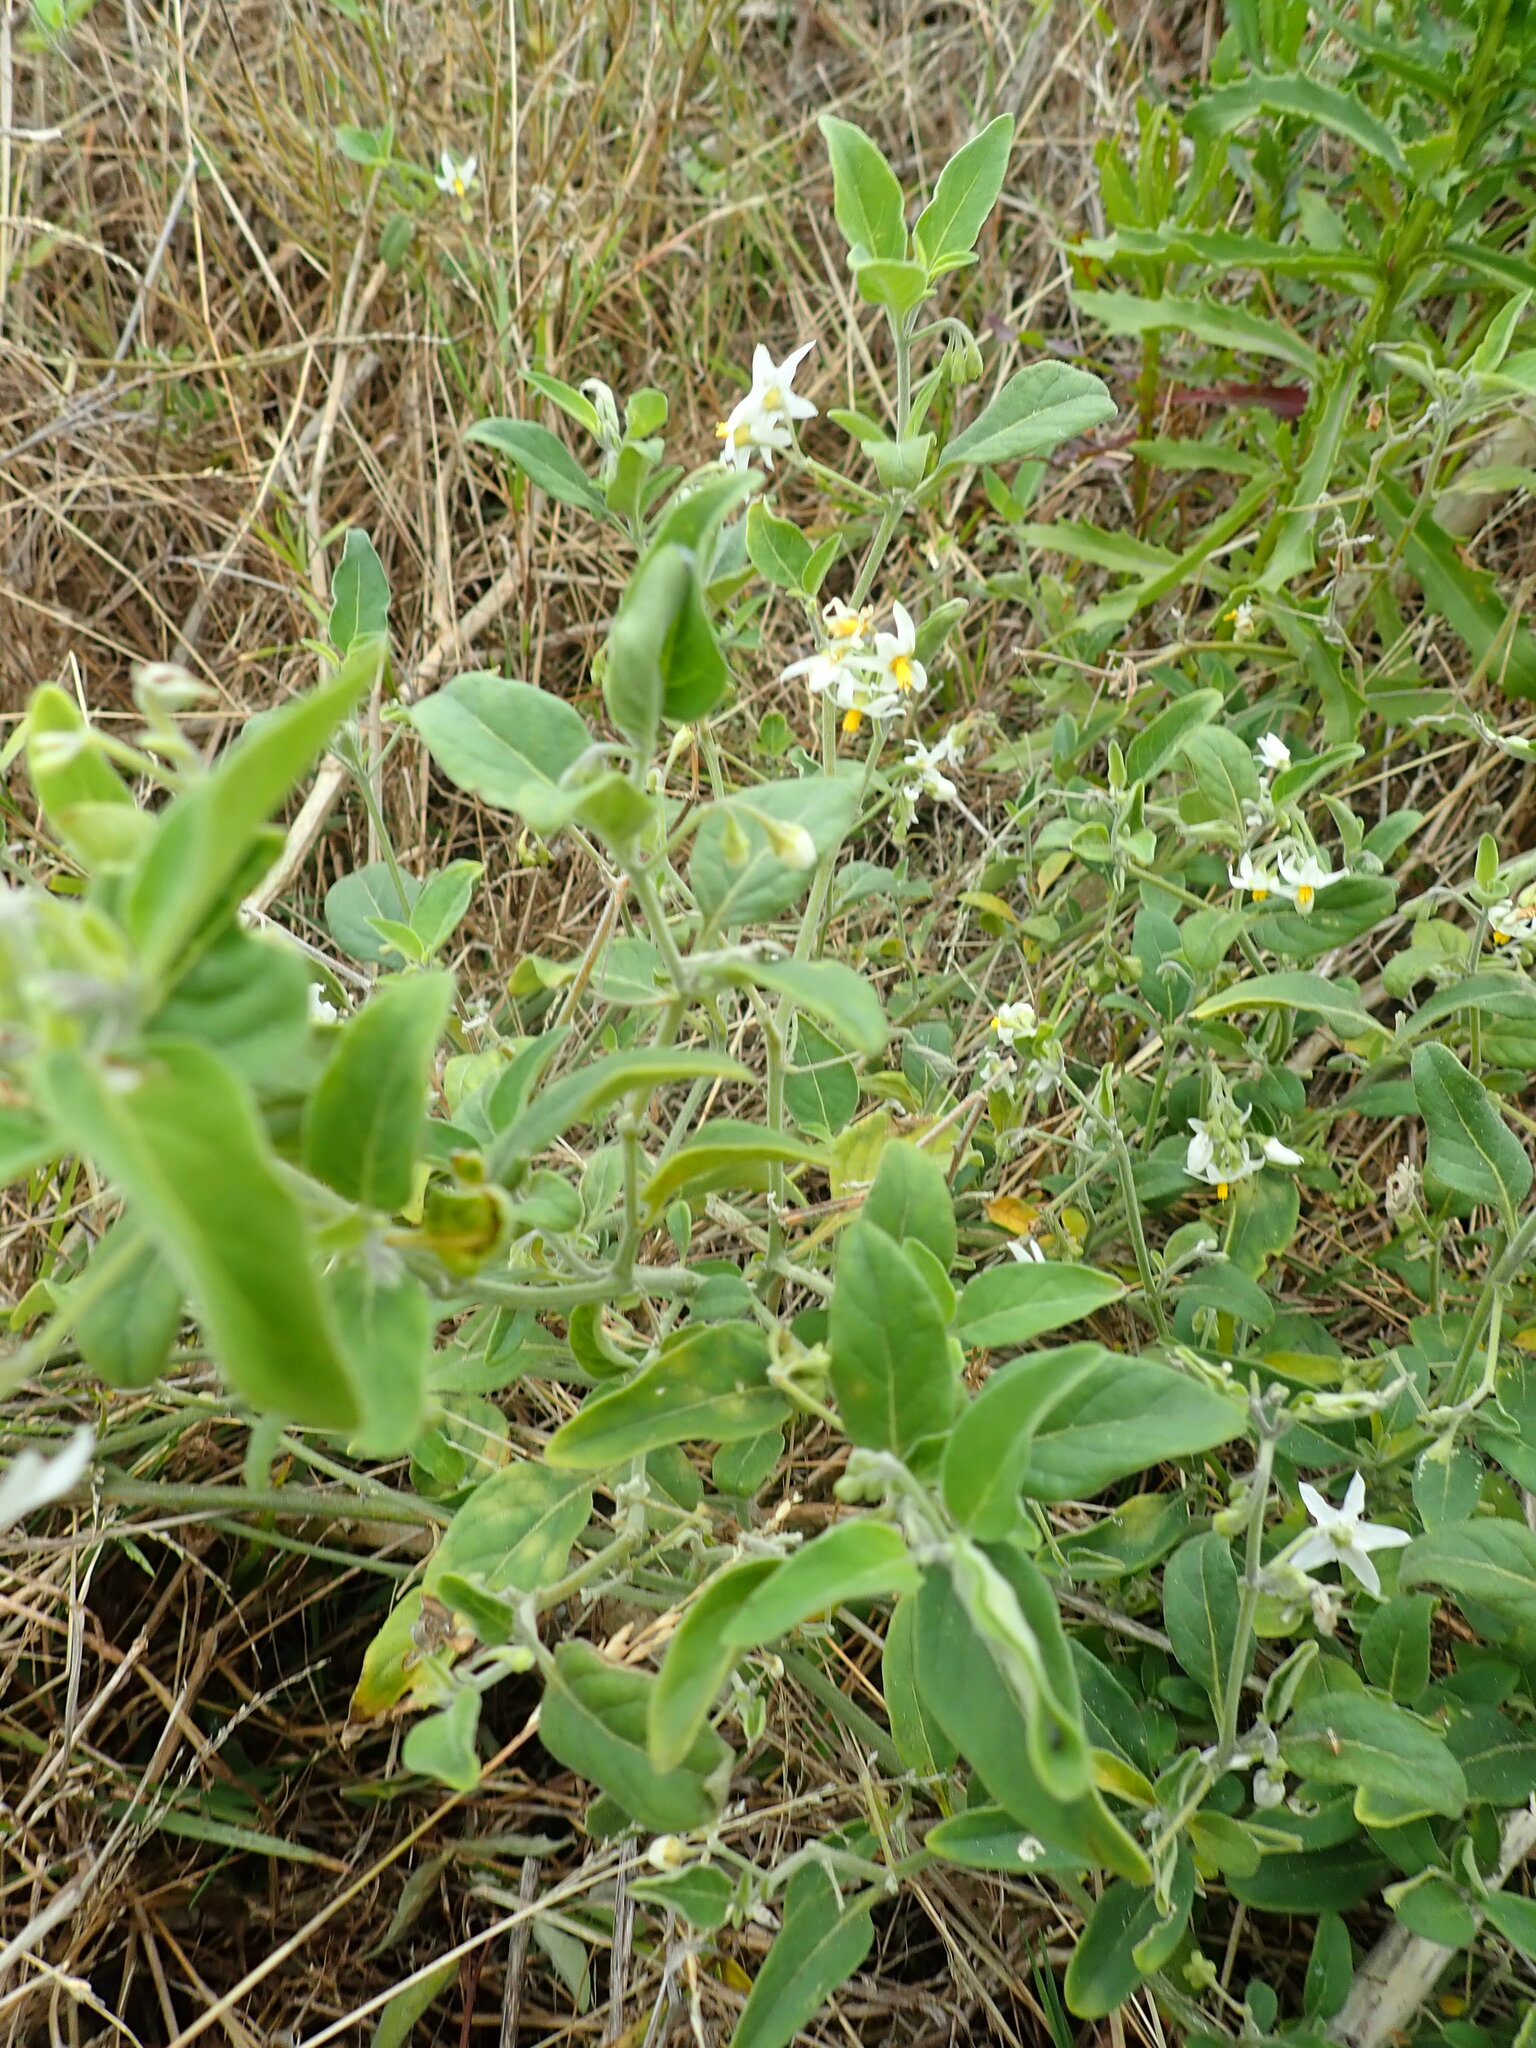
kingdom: Plantae
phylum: Tracheophyta
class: Magnoliopsida
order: Solanales
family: Solanaceae
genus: Solanum
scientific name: Solanum chenopodioides
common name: Tall nightshade
